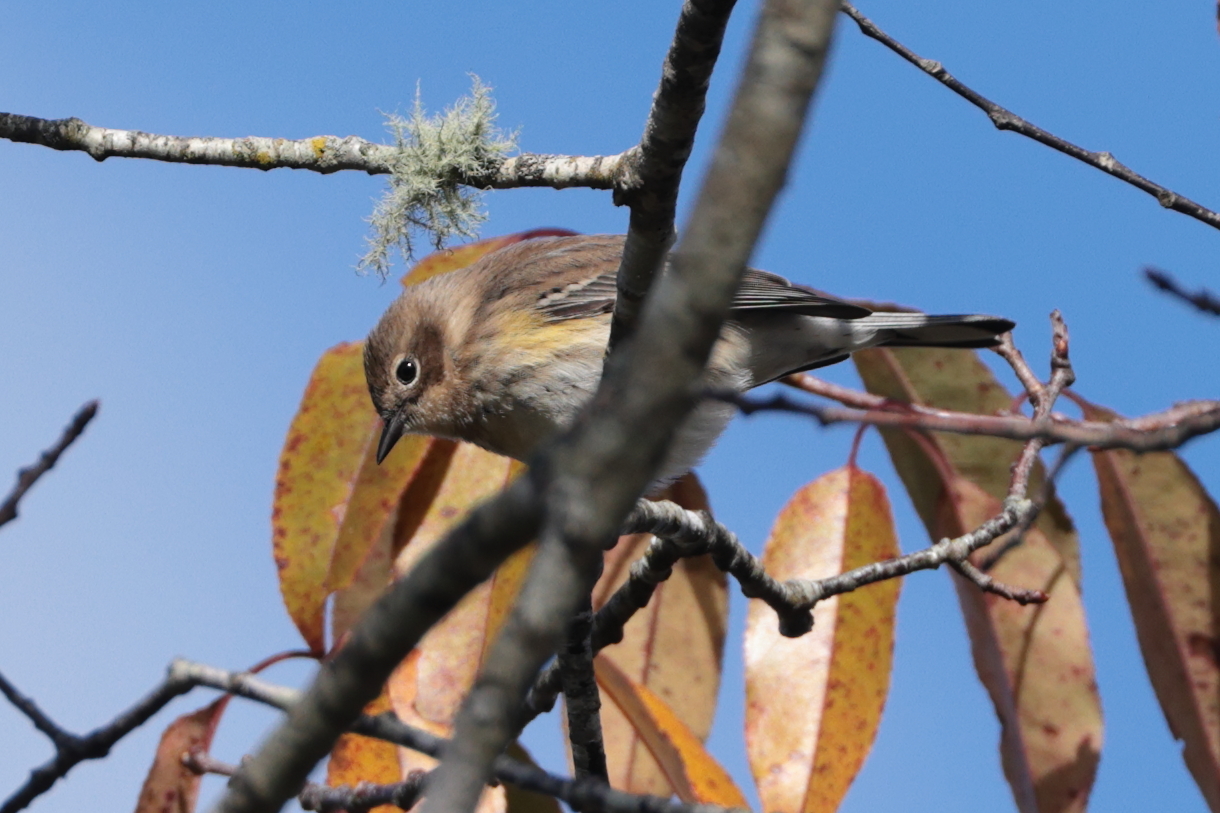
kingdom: Animalia
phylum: Chordata
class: Aves
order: Passeriformes
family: Parulidae
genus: Setophaga
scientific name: Setophaga coronata
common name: Myrtle warbler
